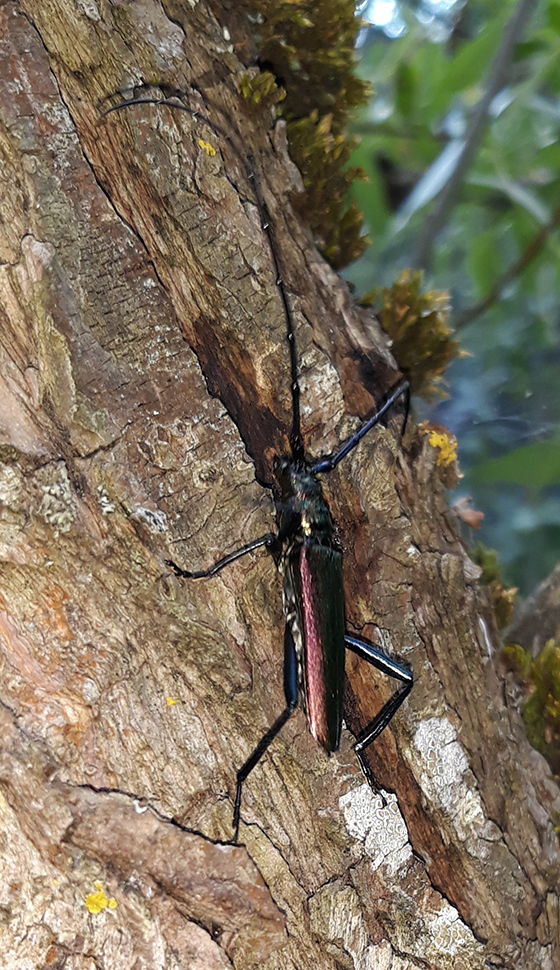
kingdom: Animalia
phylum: Arthropoda
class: Insecta
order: Coleoptera
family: Cerambycidae
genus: Aromia
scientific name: Aromia moschata
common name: Musk beetle
